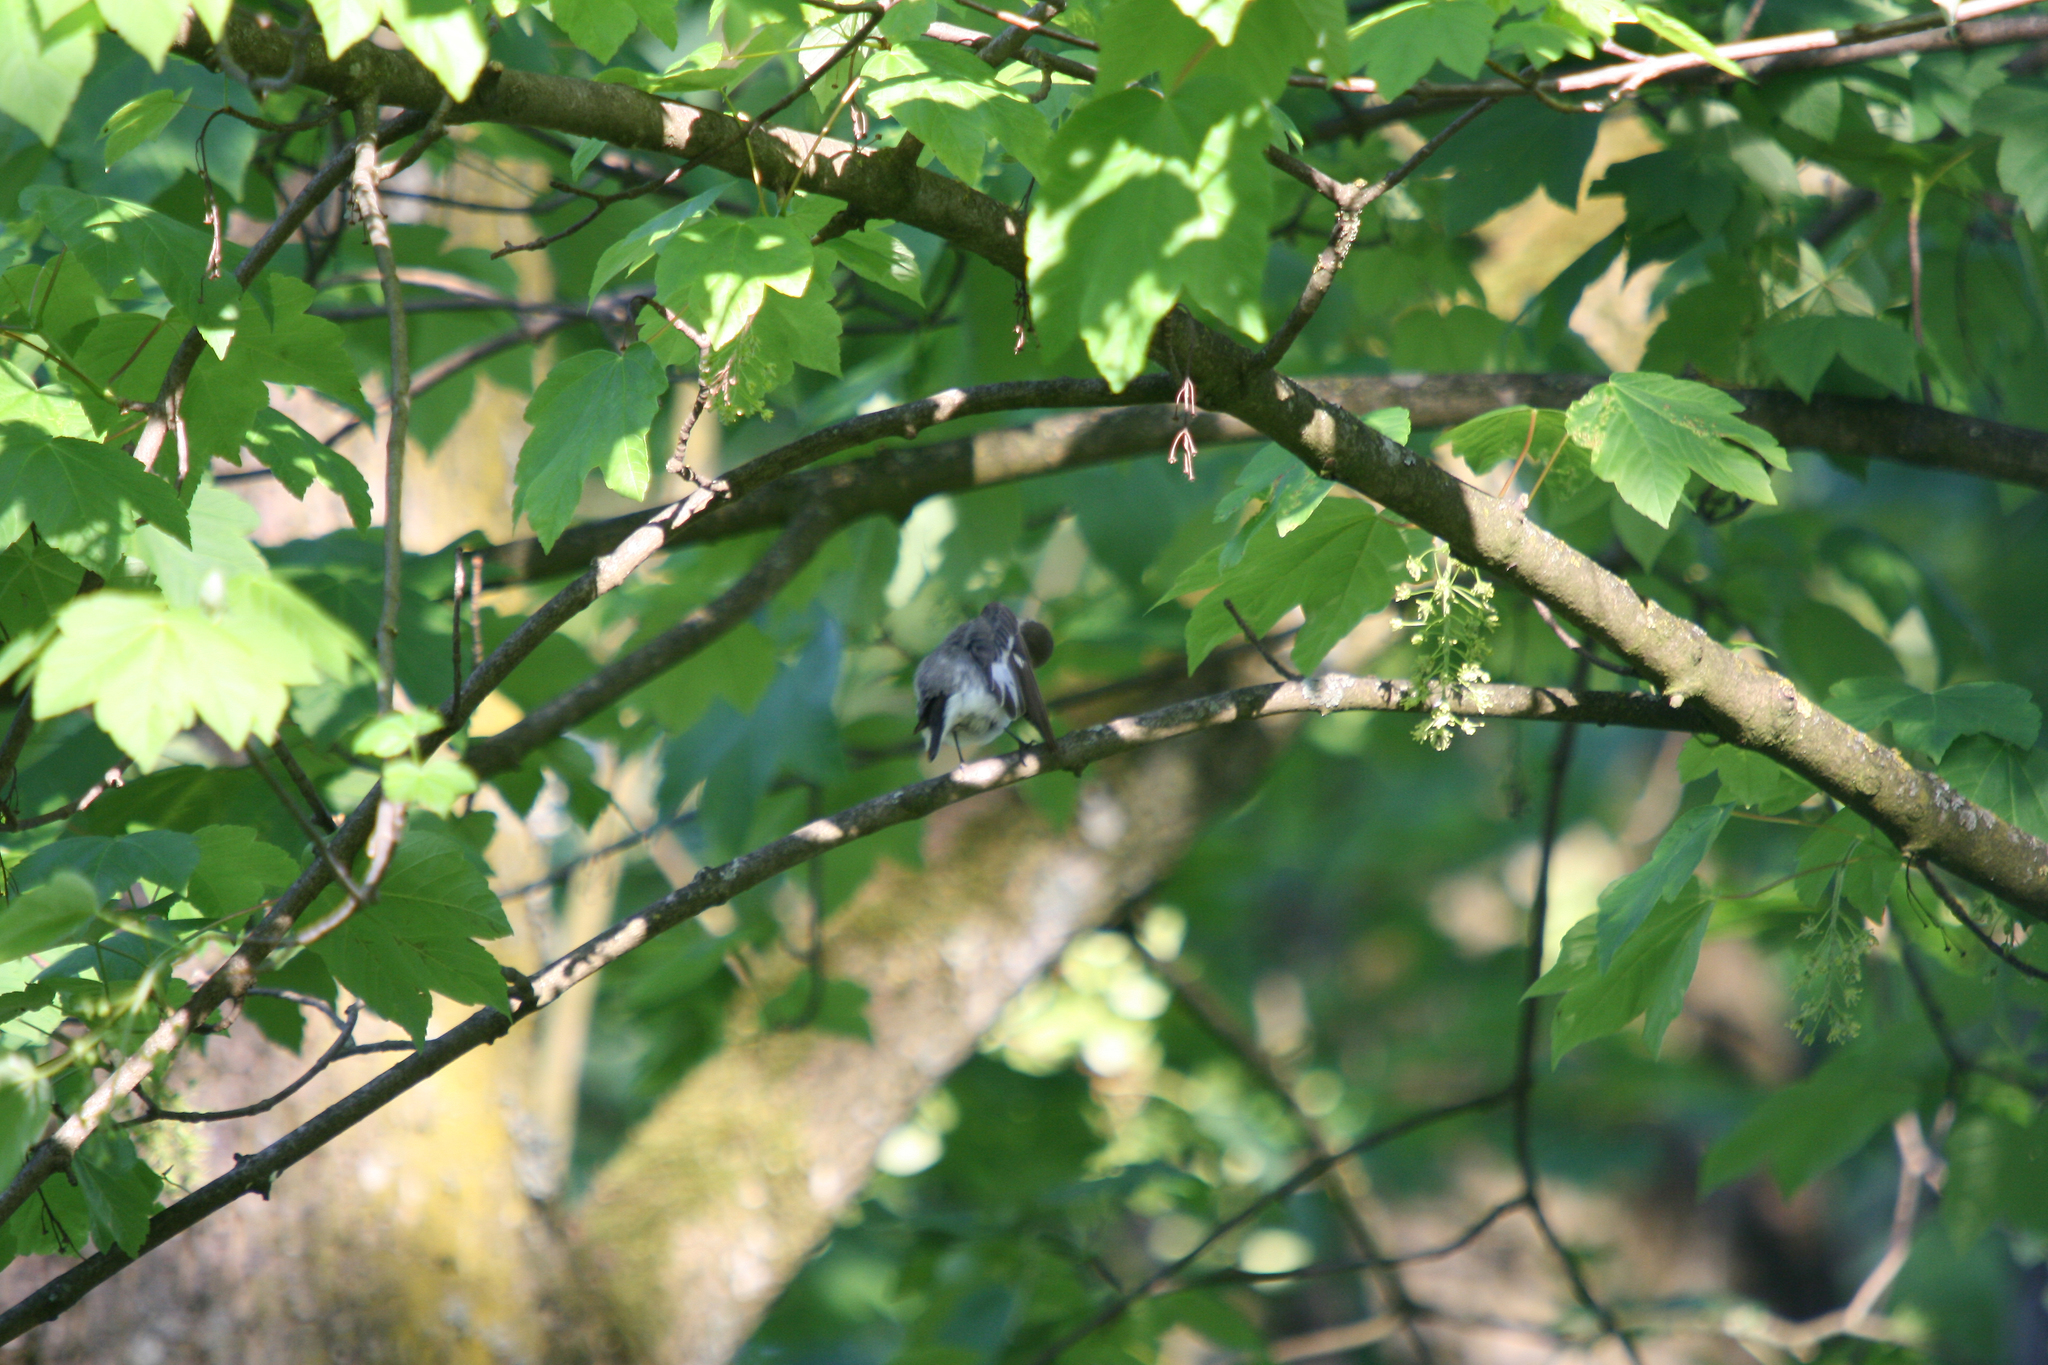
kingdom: Animalia
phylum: Chordata
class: Aves
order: Passeriformes
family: Muscicapidae
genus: Ficedula
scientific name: Ficedula albicollis
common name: Collared flycatcher
